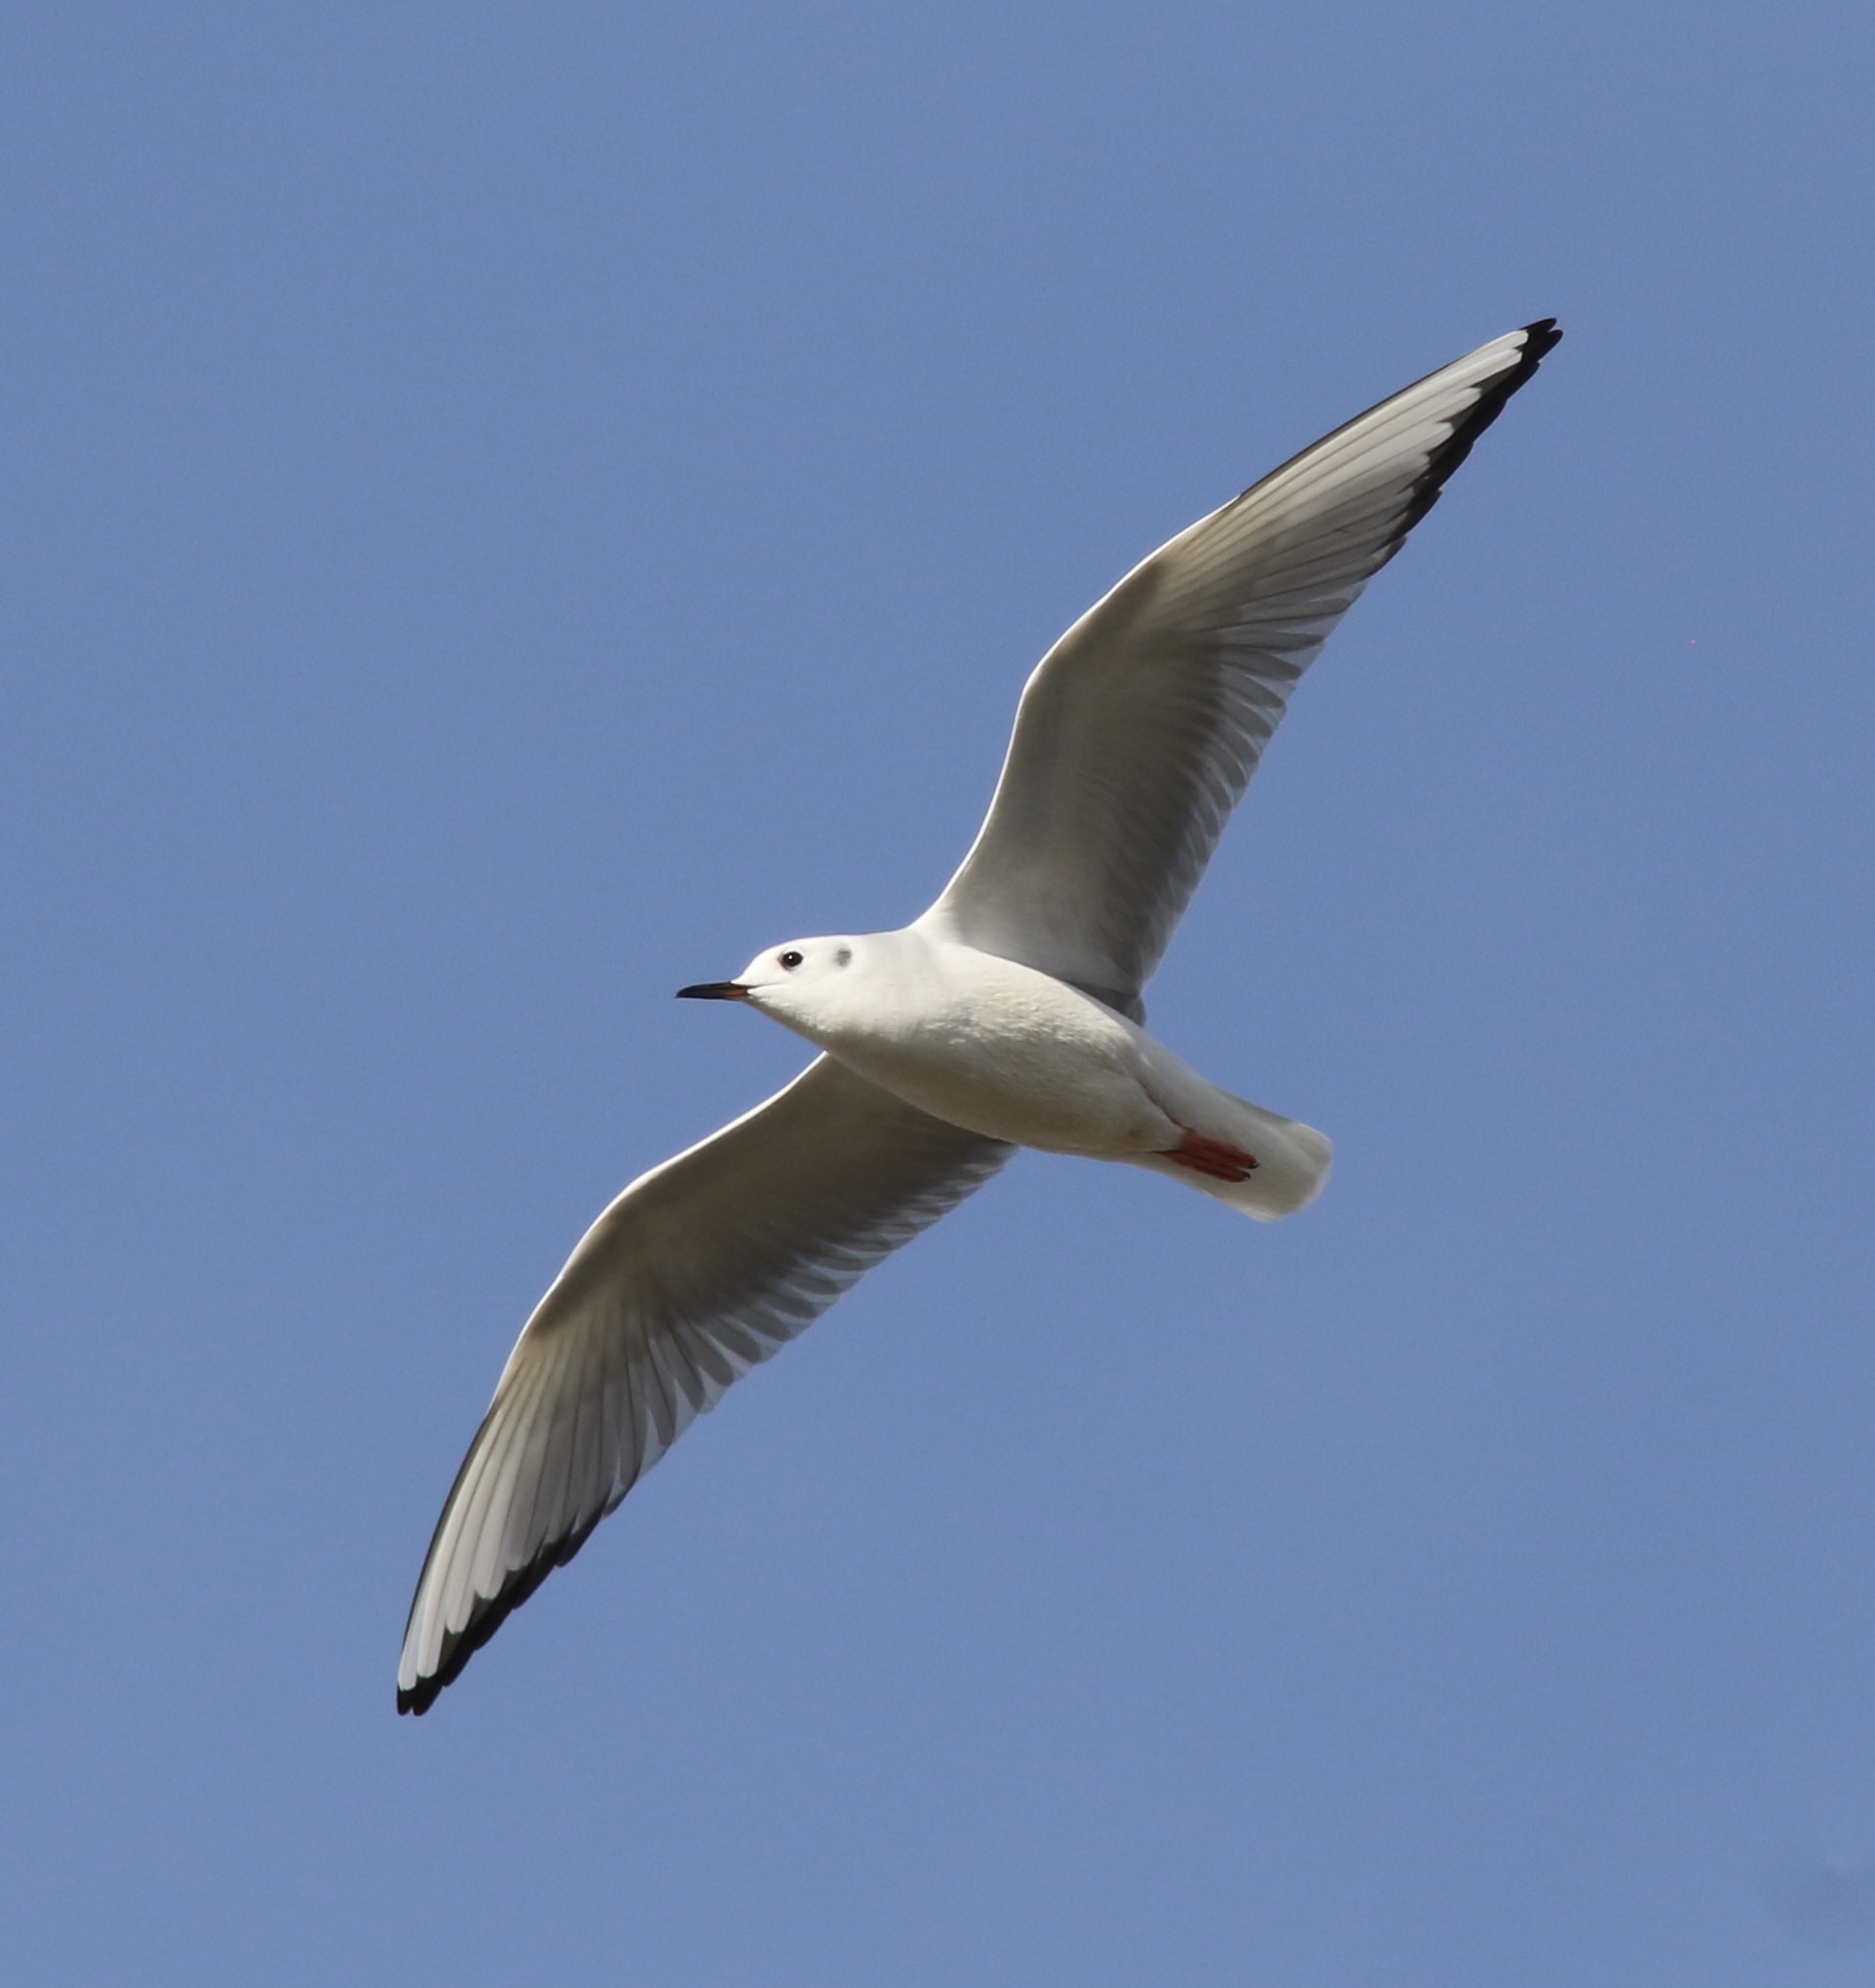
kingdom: Animalia
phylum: Chordata
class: Aves
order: Charadriiformes
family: Laridae
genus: Chroicocephalus
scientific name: Chroicocephalus philadelphia
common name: Bonaparte's gull
